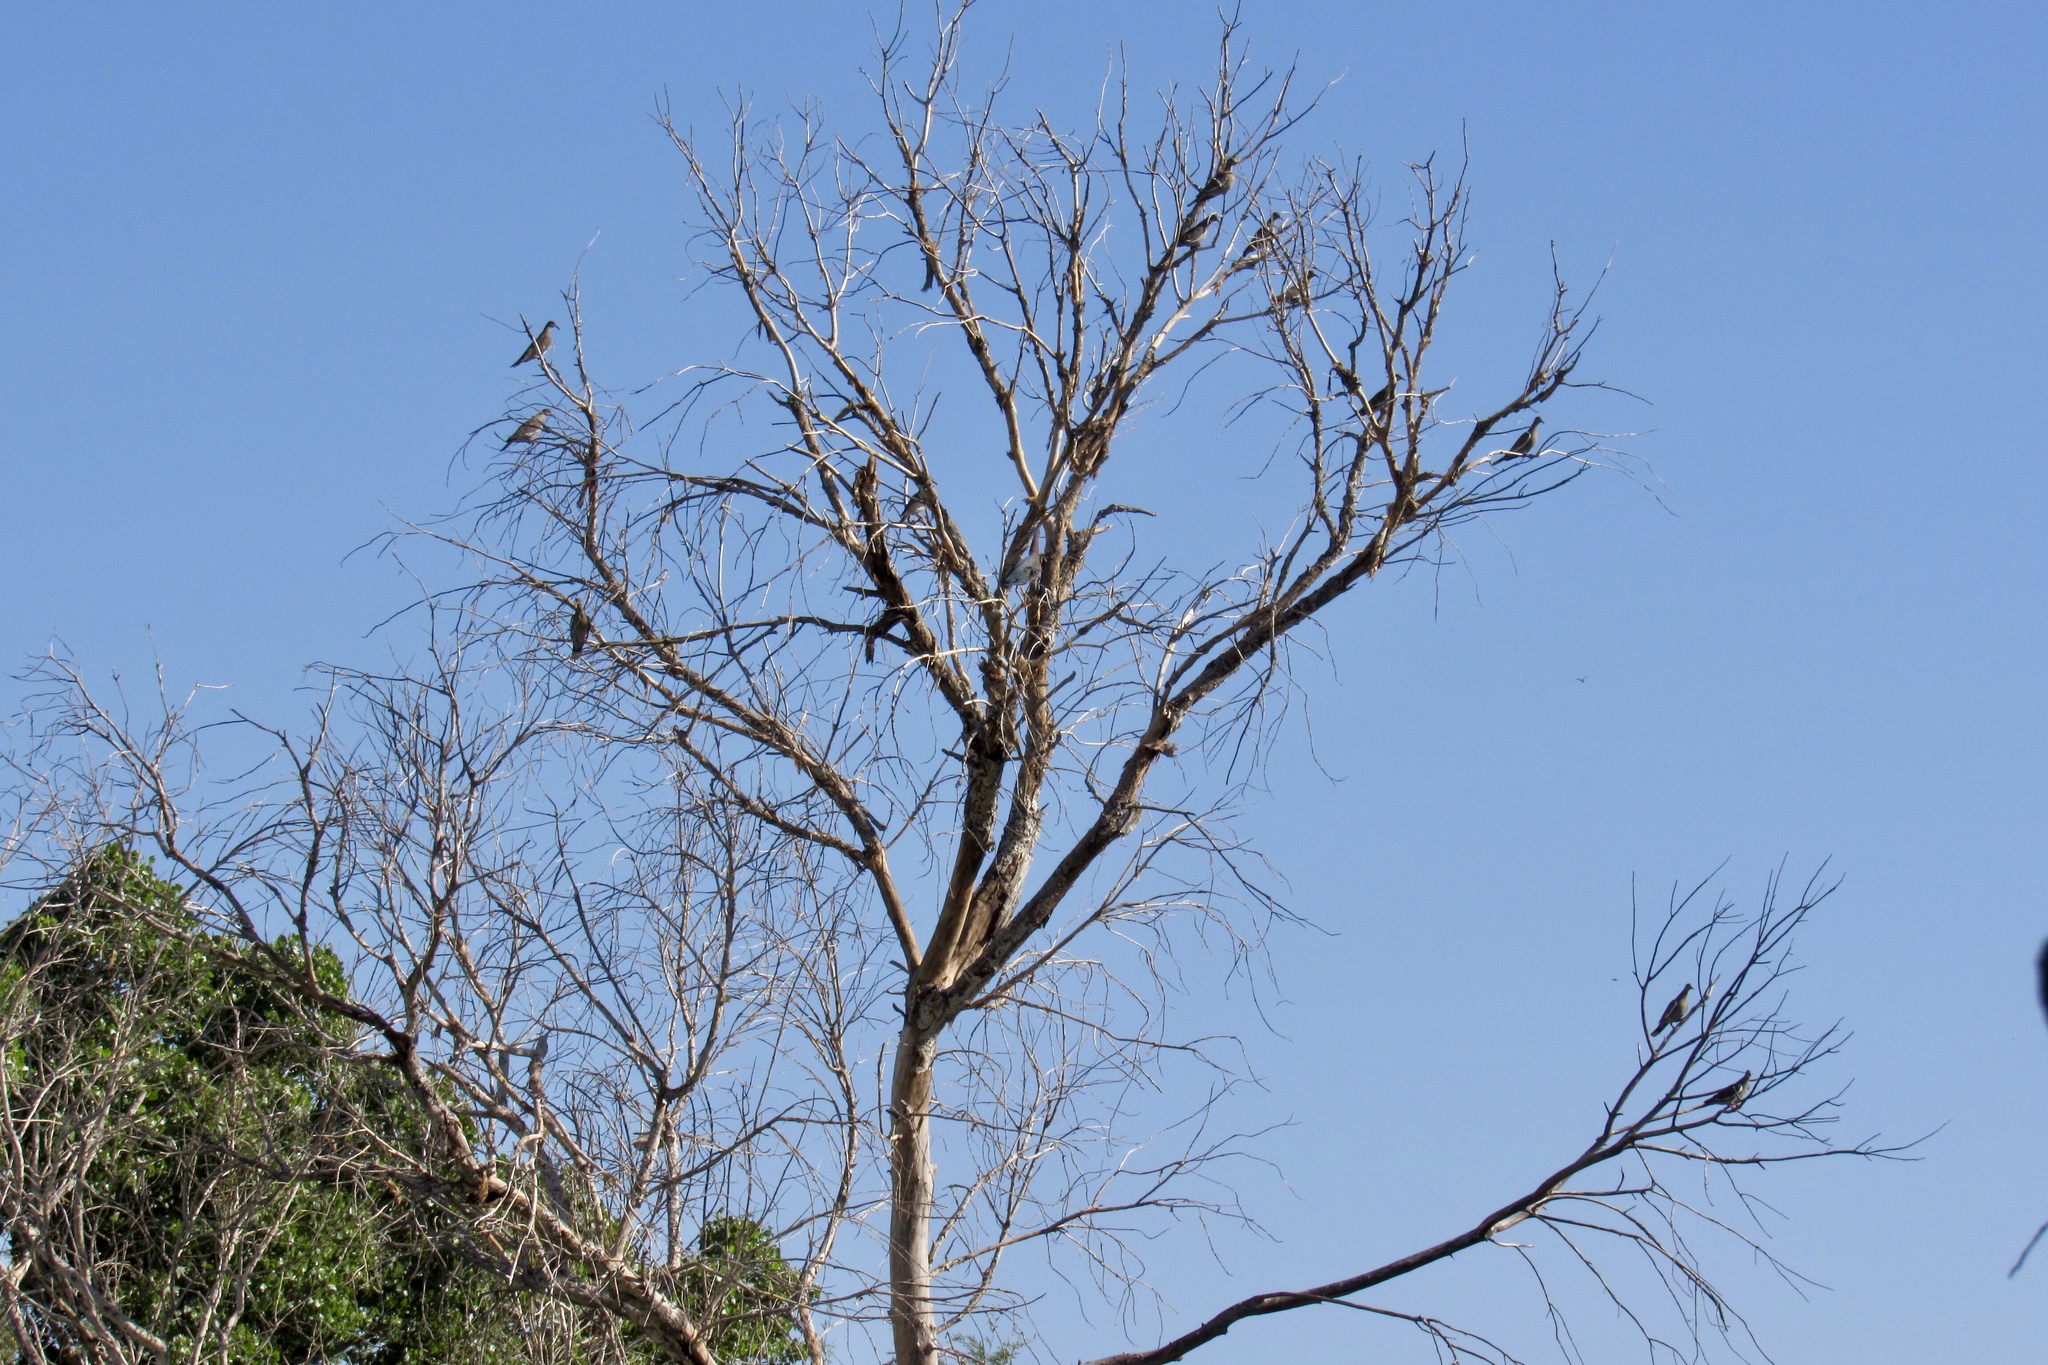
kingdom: Animalia
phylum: Chordata
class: Aves
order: Pelecaniformes
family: Ardeidae
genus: Butorides
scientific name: Butorides virescens
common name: Green heron
